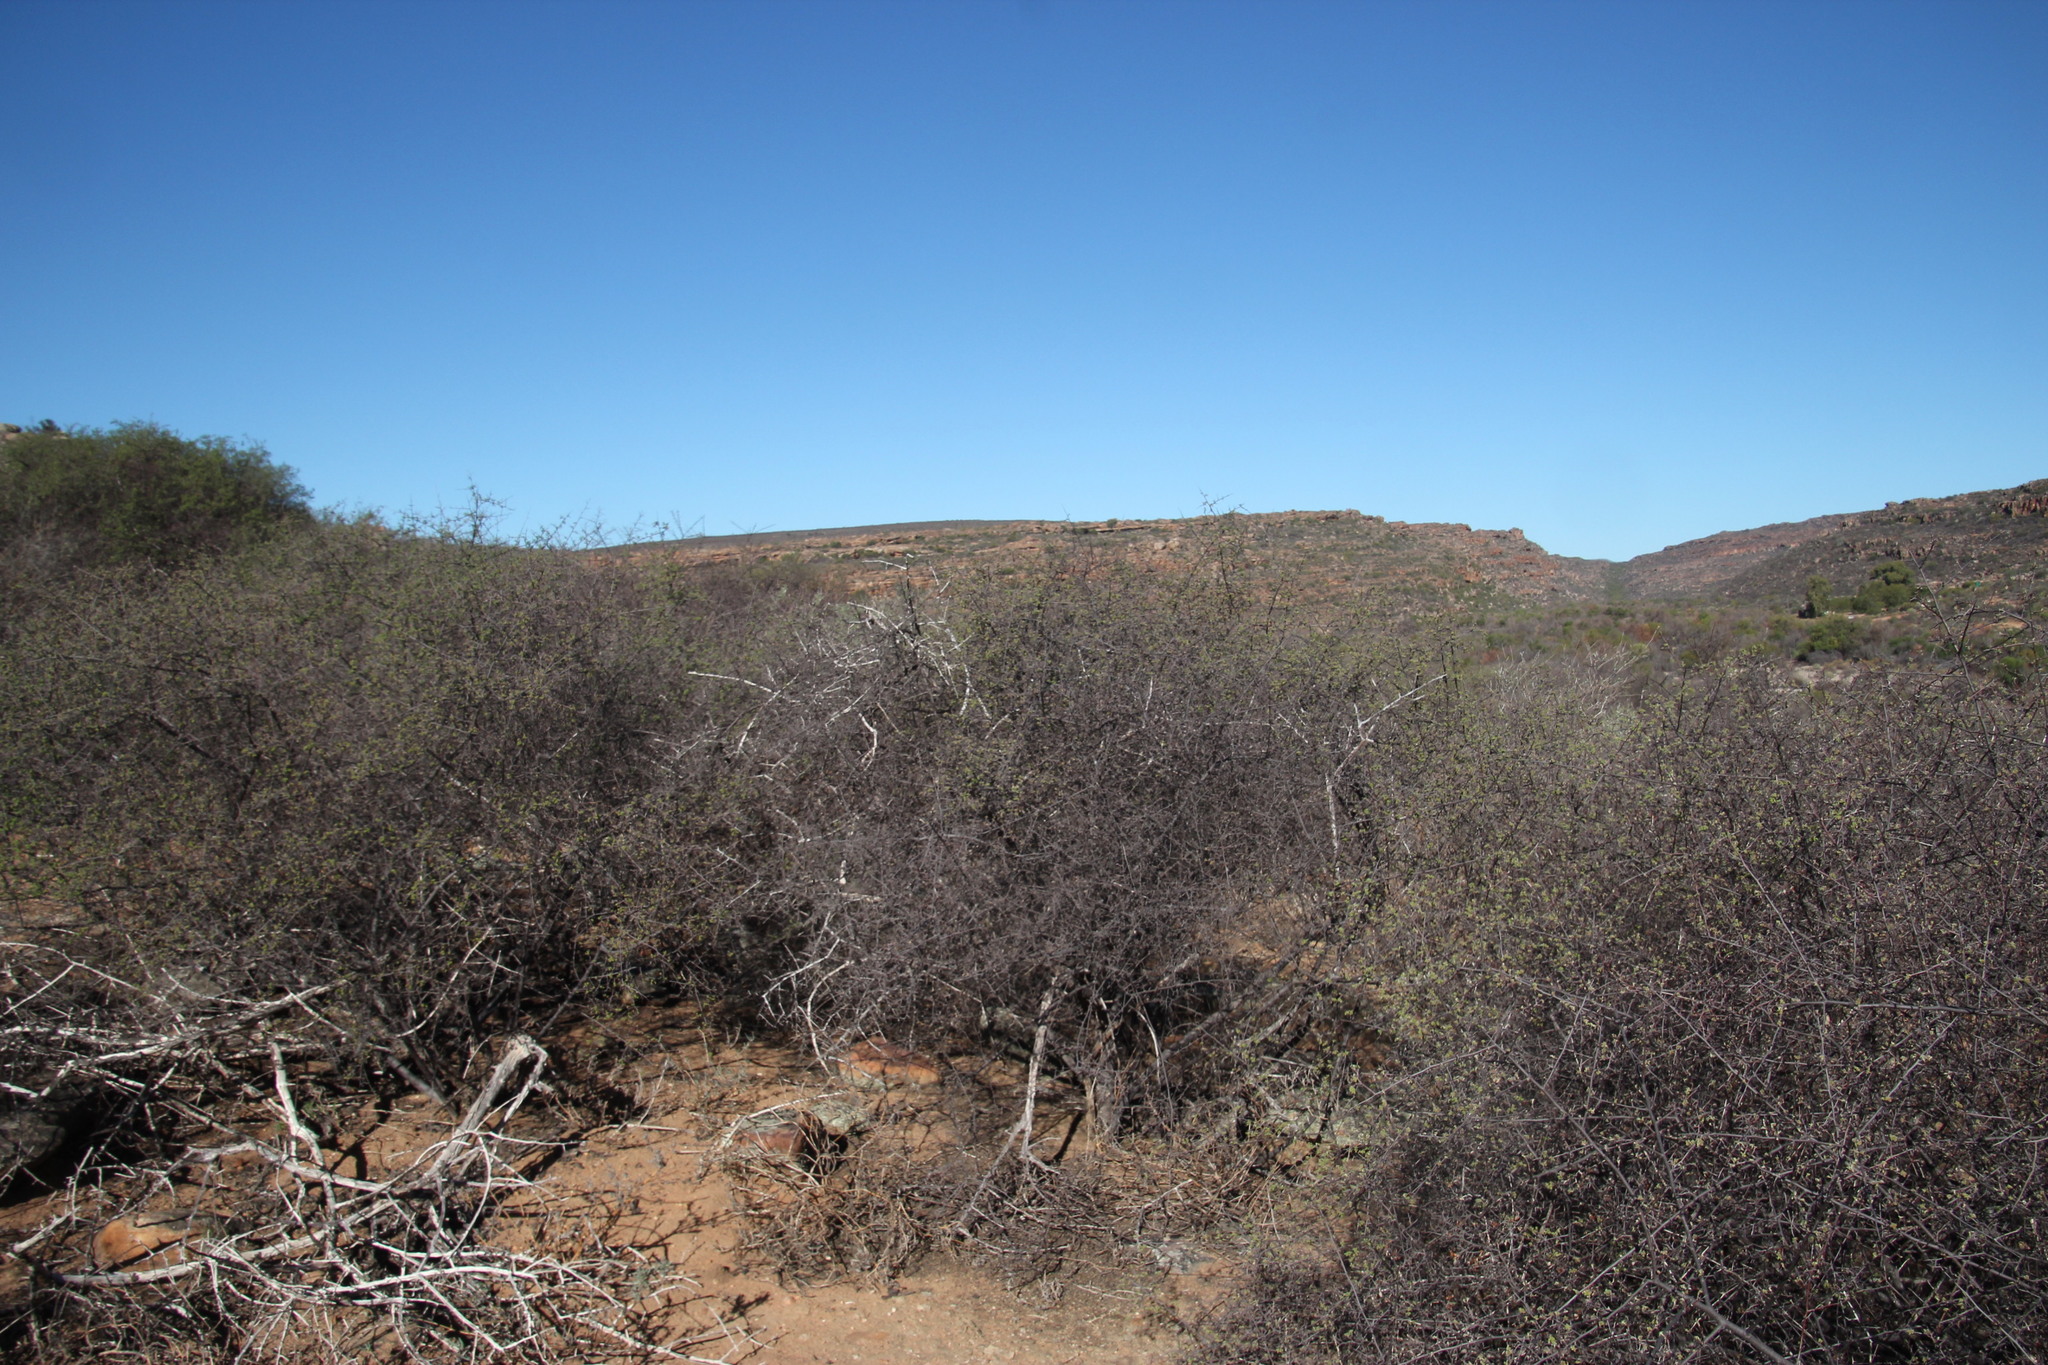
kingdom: Plantae
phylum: Tracheophyta
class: Magnoliopsida
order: Sapindales
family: Anacardiaceae
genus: Searsia
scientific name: Searsia incisa
